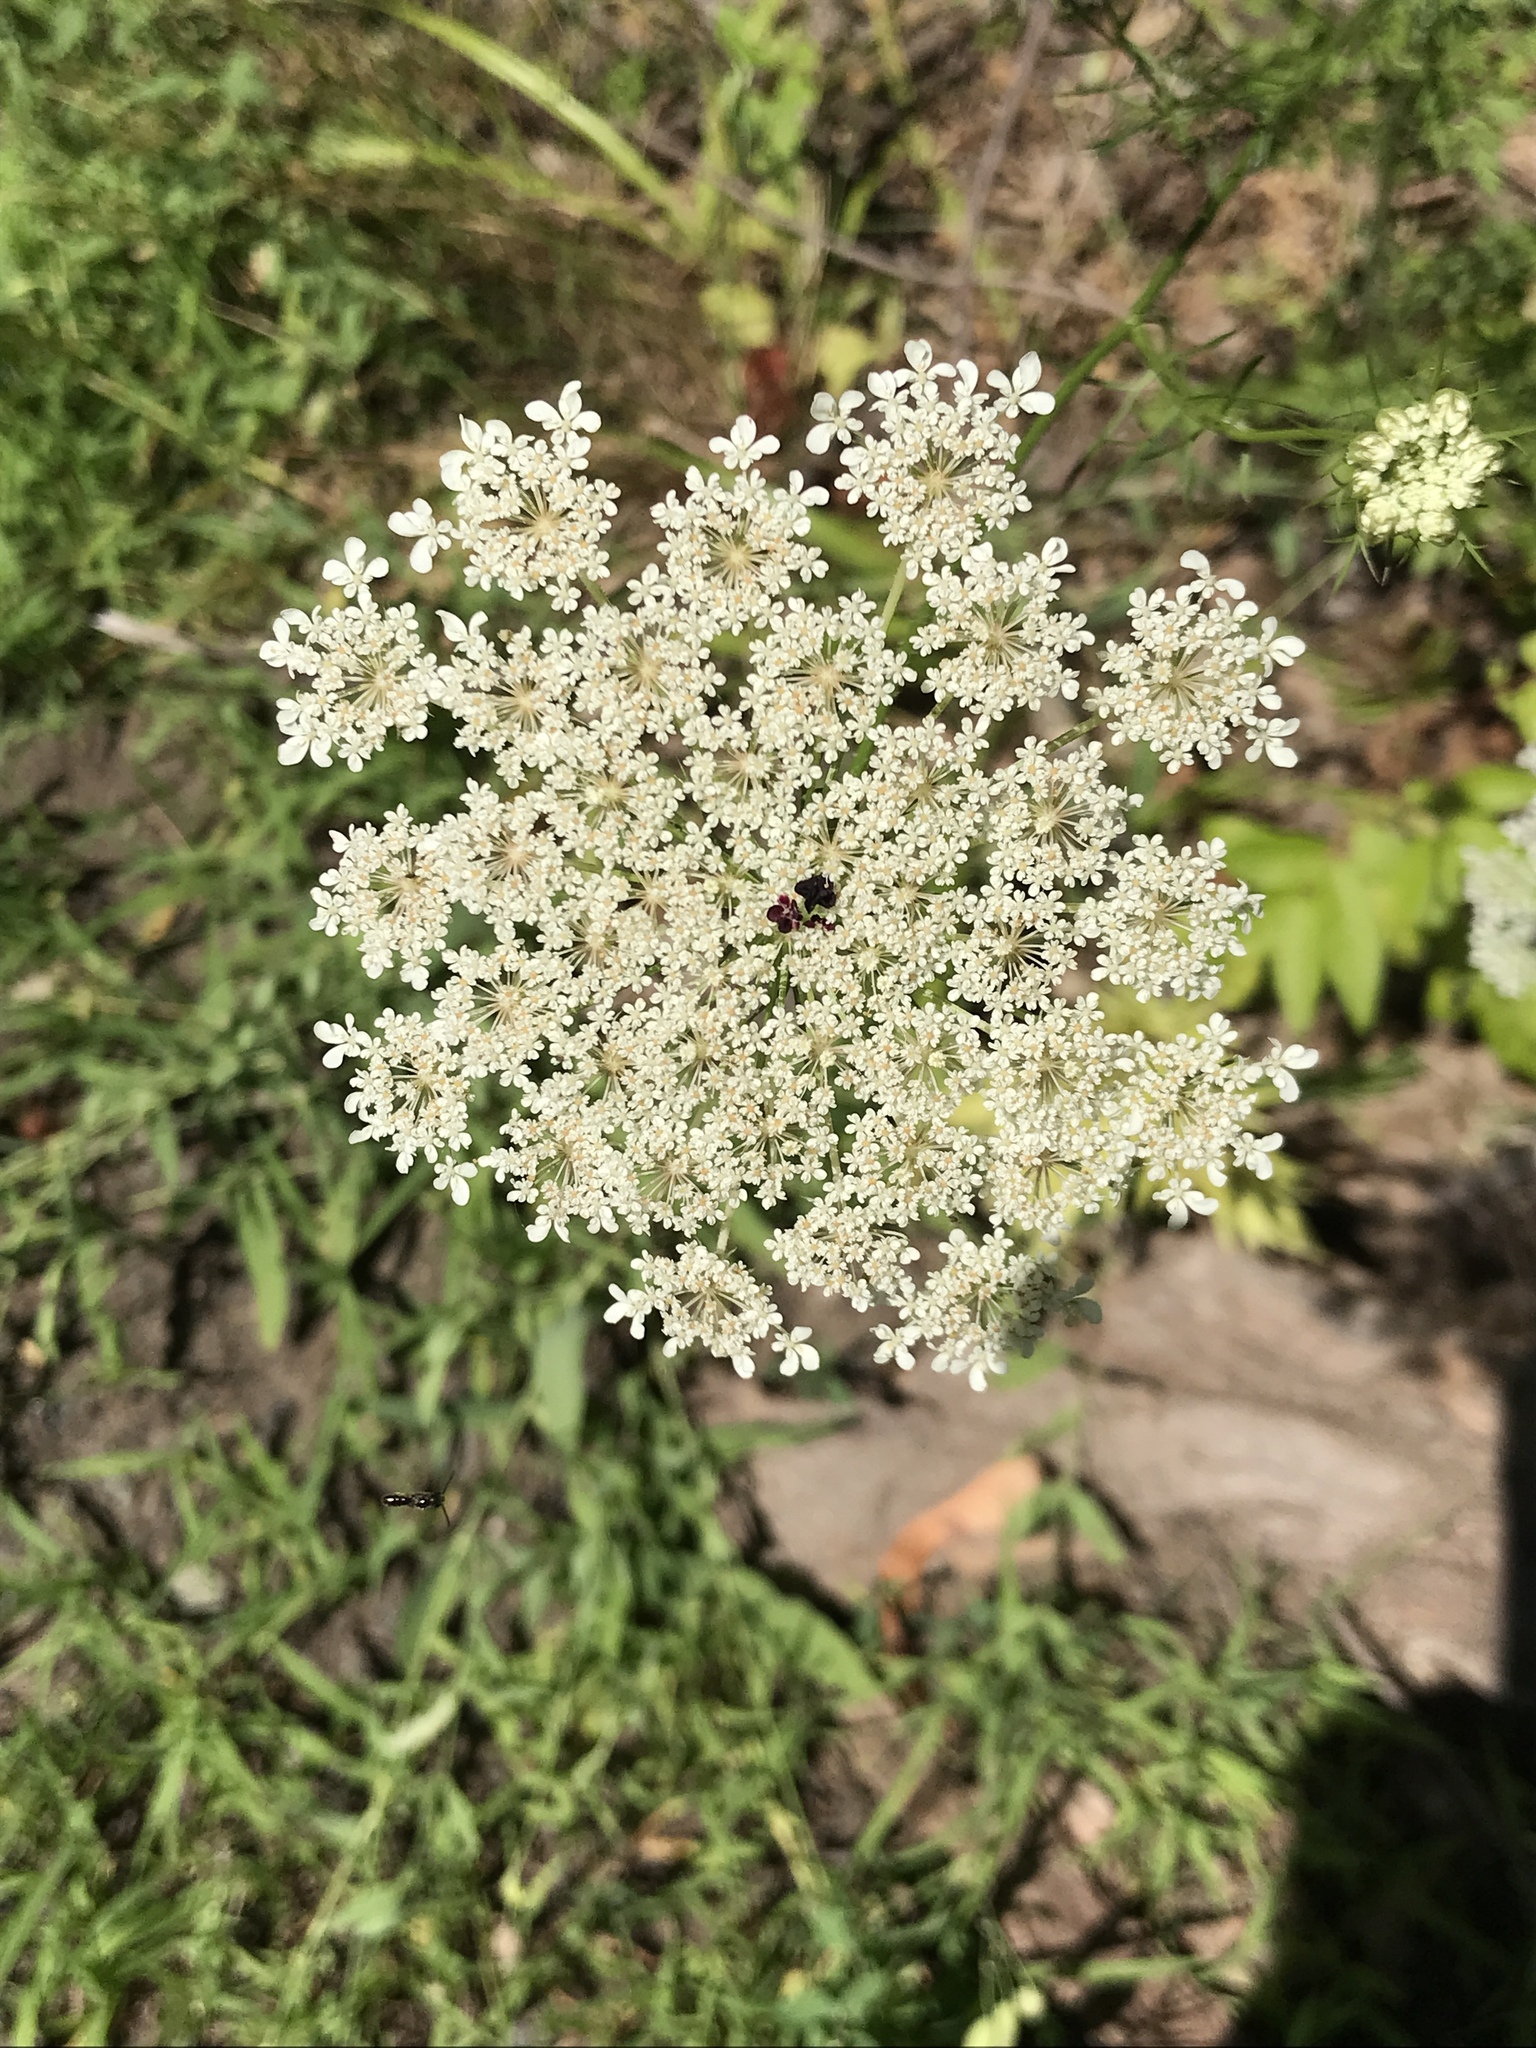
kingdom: Plantae
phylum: Tracheophyta
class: Magnoliopsida
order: Apiales
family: Apiaceae
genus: Daucus
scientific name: Daucus carota
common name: Wild carrot
